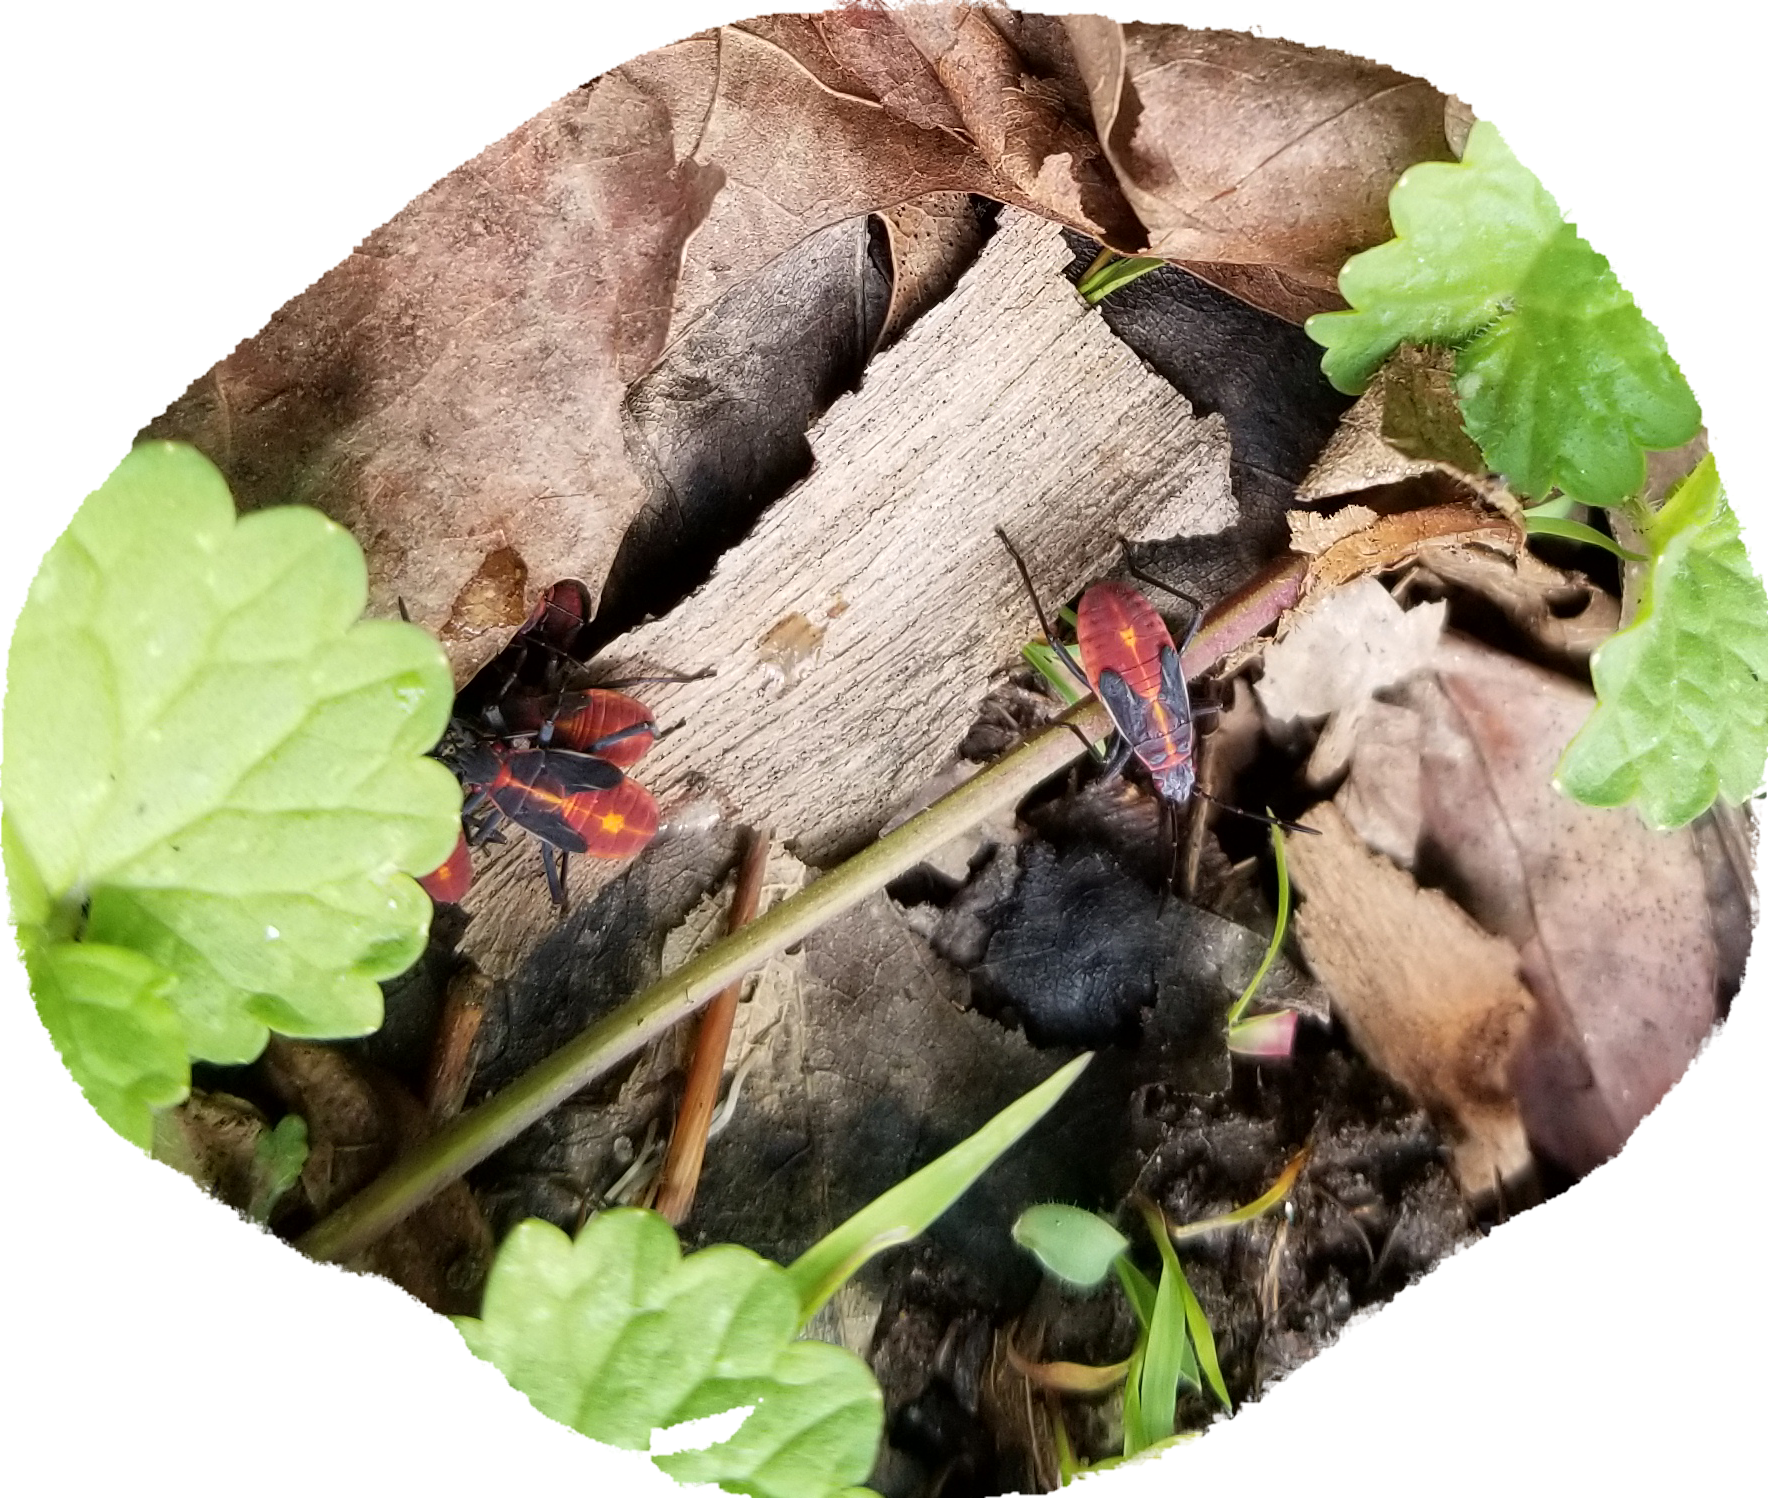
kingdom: Animalia
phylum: Arthropoda
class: Insecta
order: Hemiptera
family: Rhopalidae
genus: Boisea
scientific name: Boisea trivittata
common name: Boxelder bug
